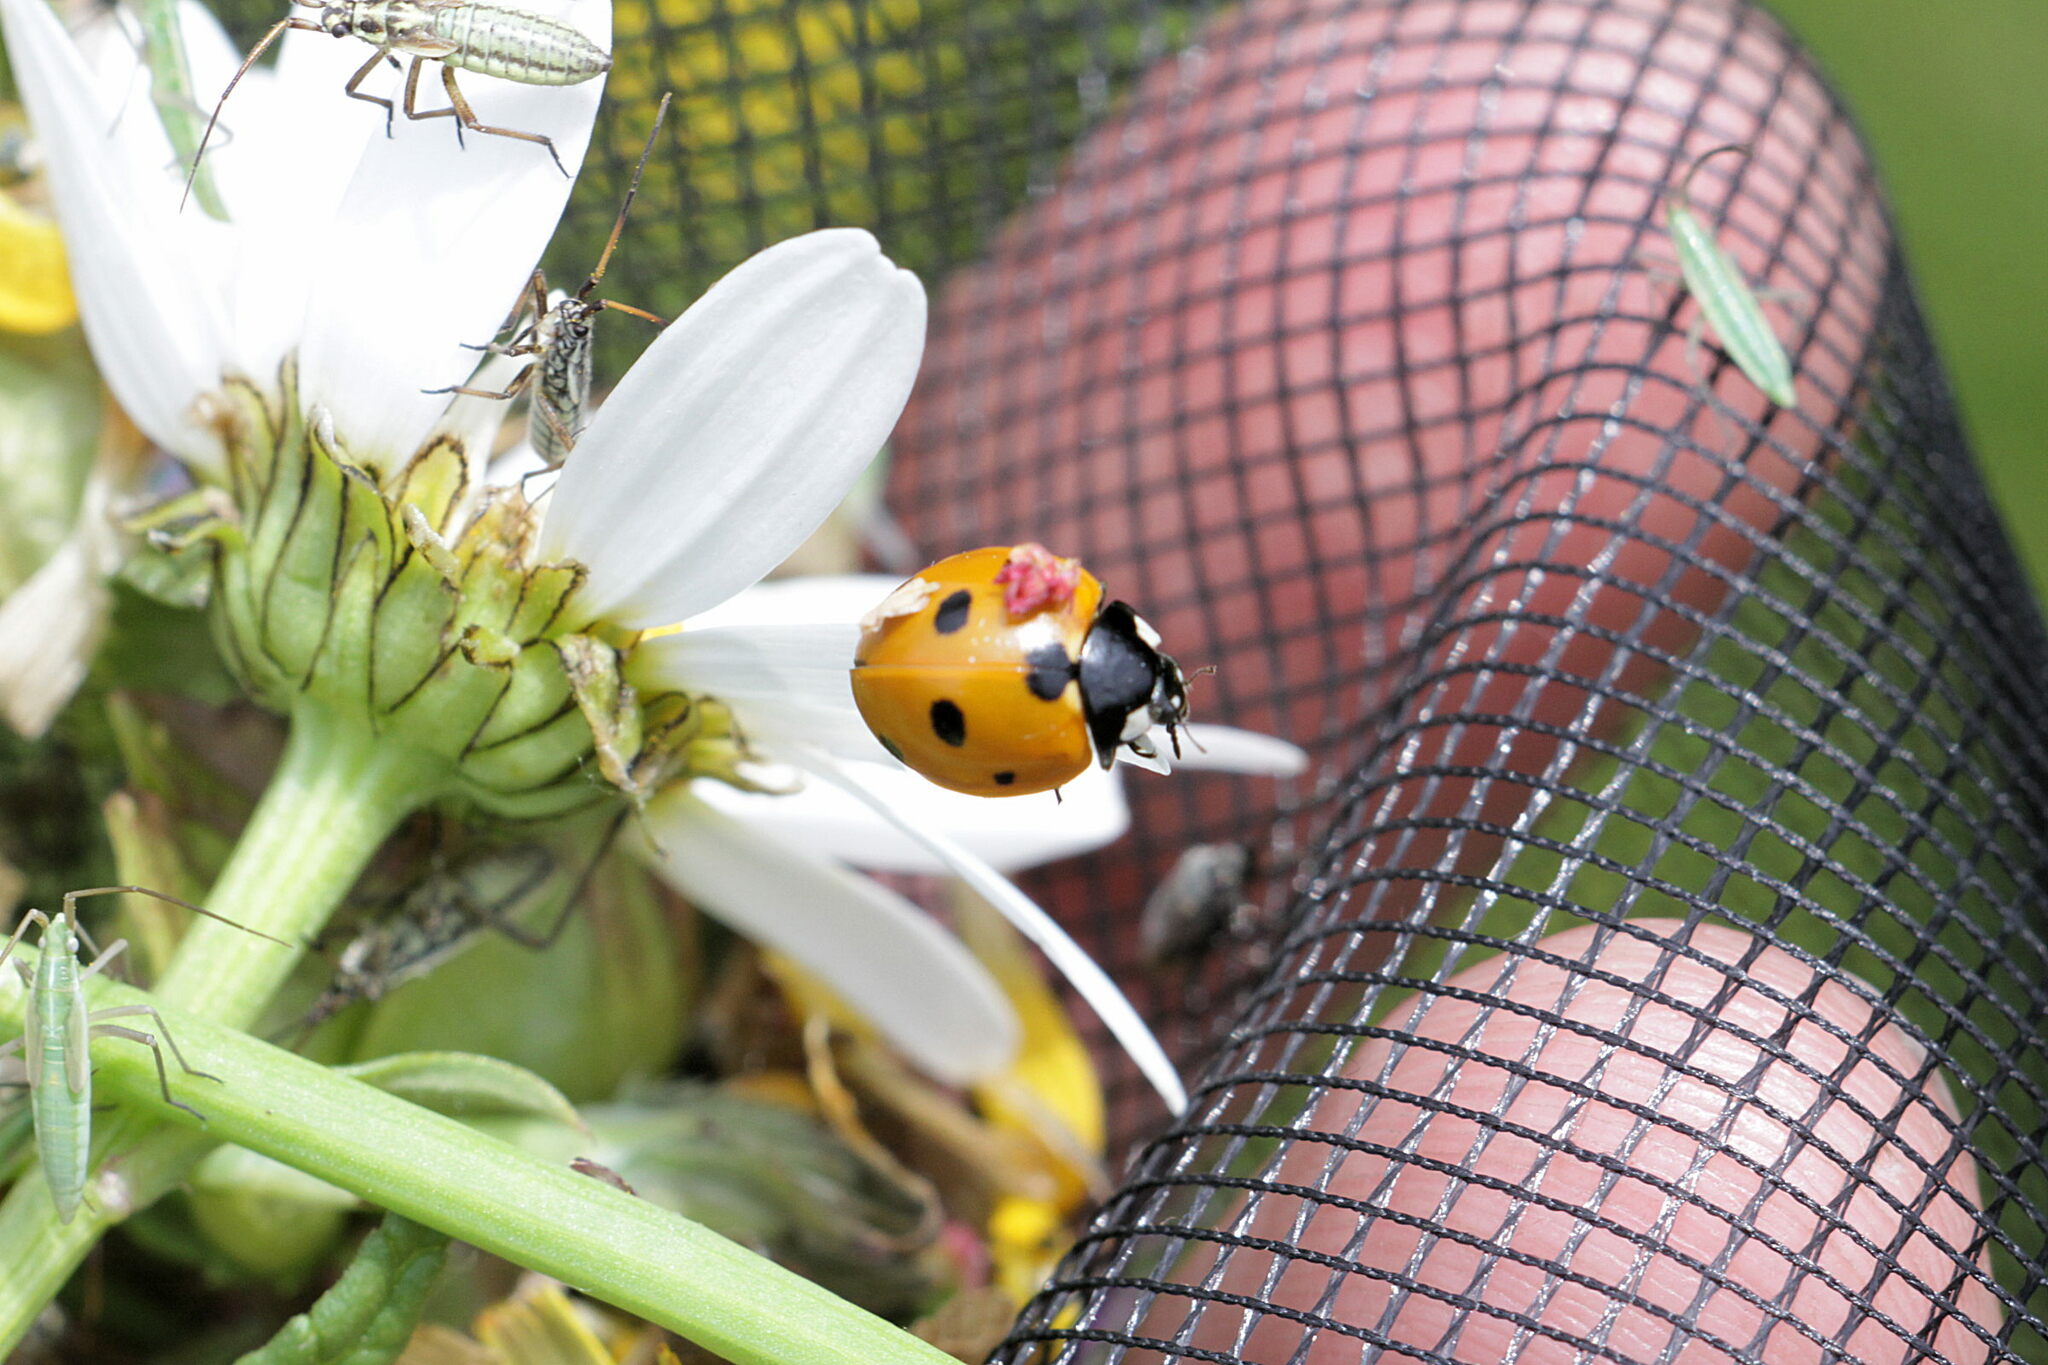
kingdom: Animalia
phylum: Arthropoda
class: Insecta
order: Coleoptera
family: Coccinellidae
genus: Coccinella
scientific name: Coccinella septempunctata
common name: Sevenspotted lady beetle
